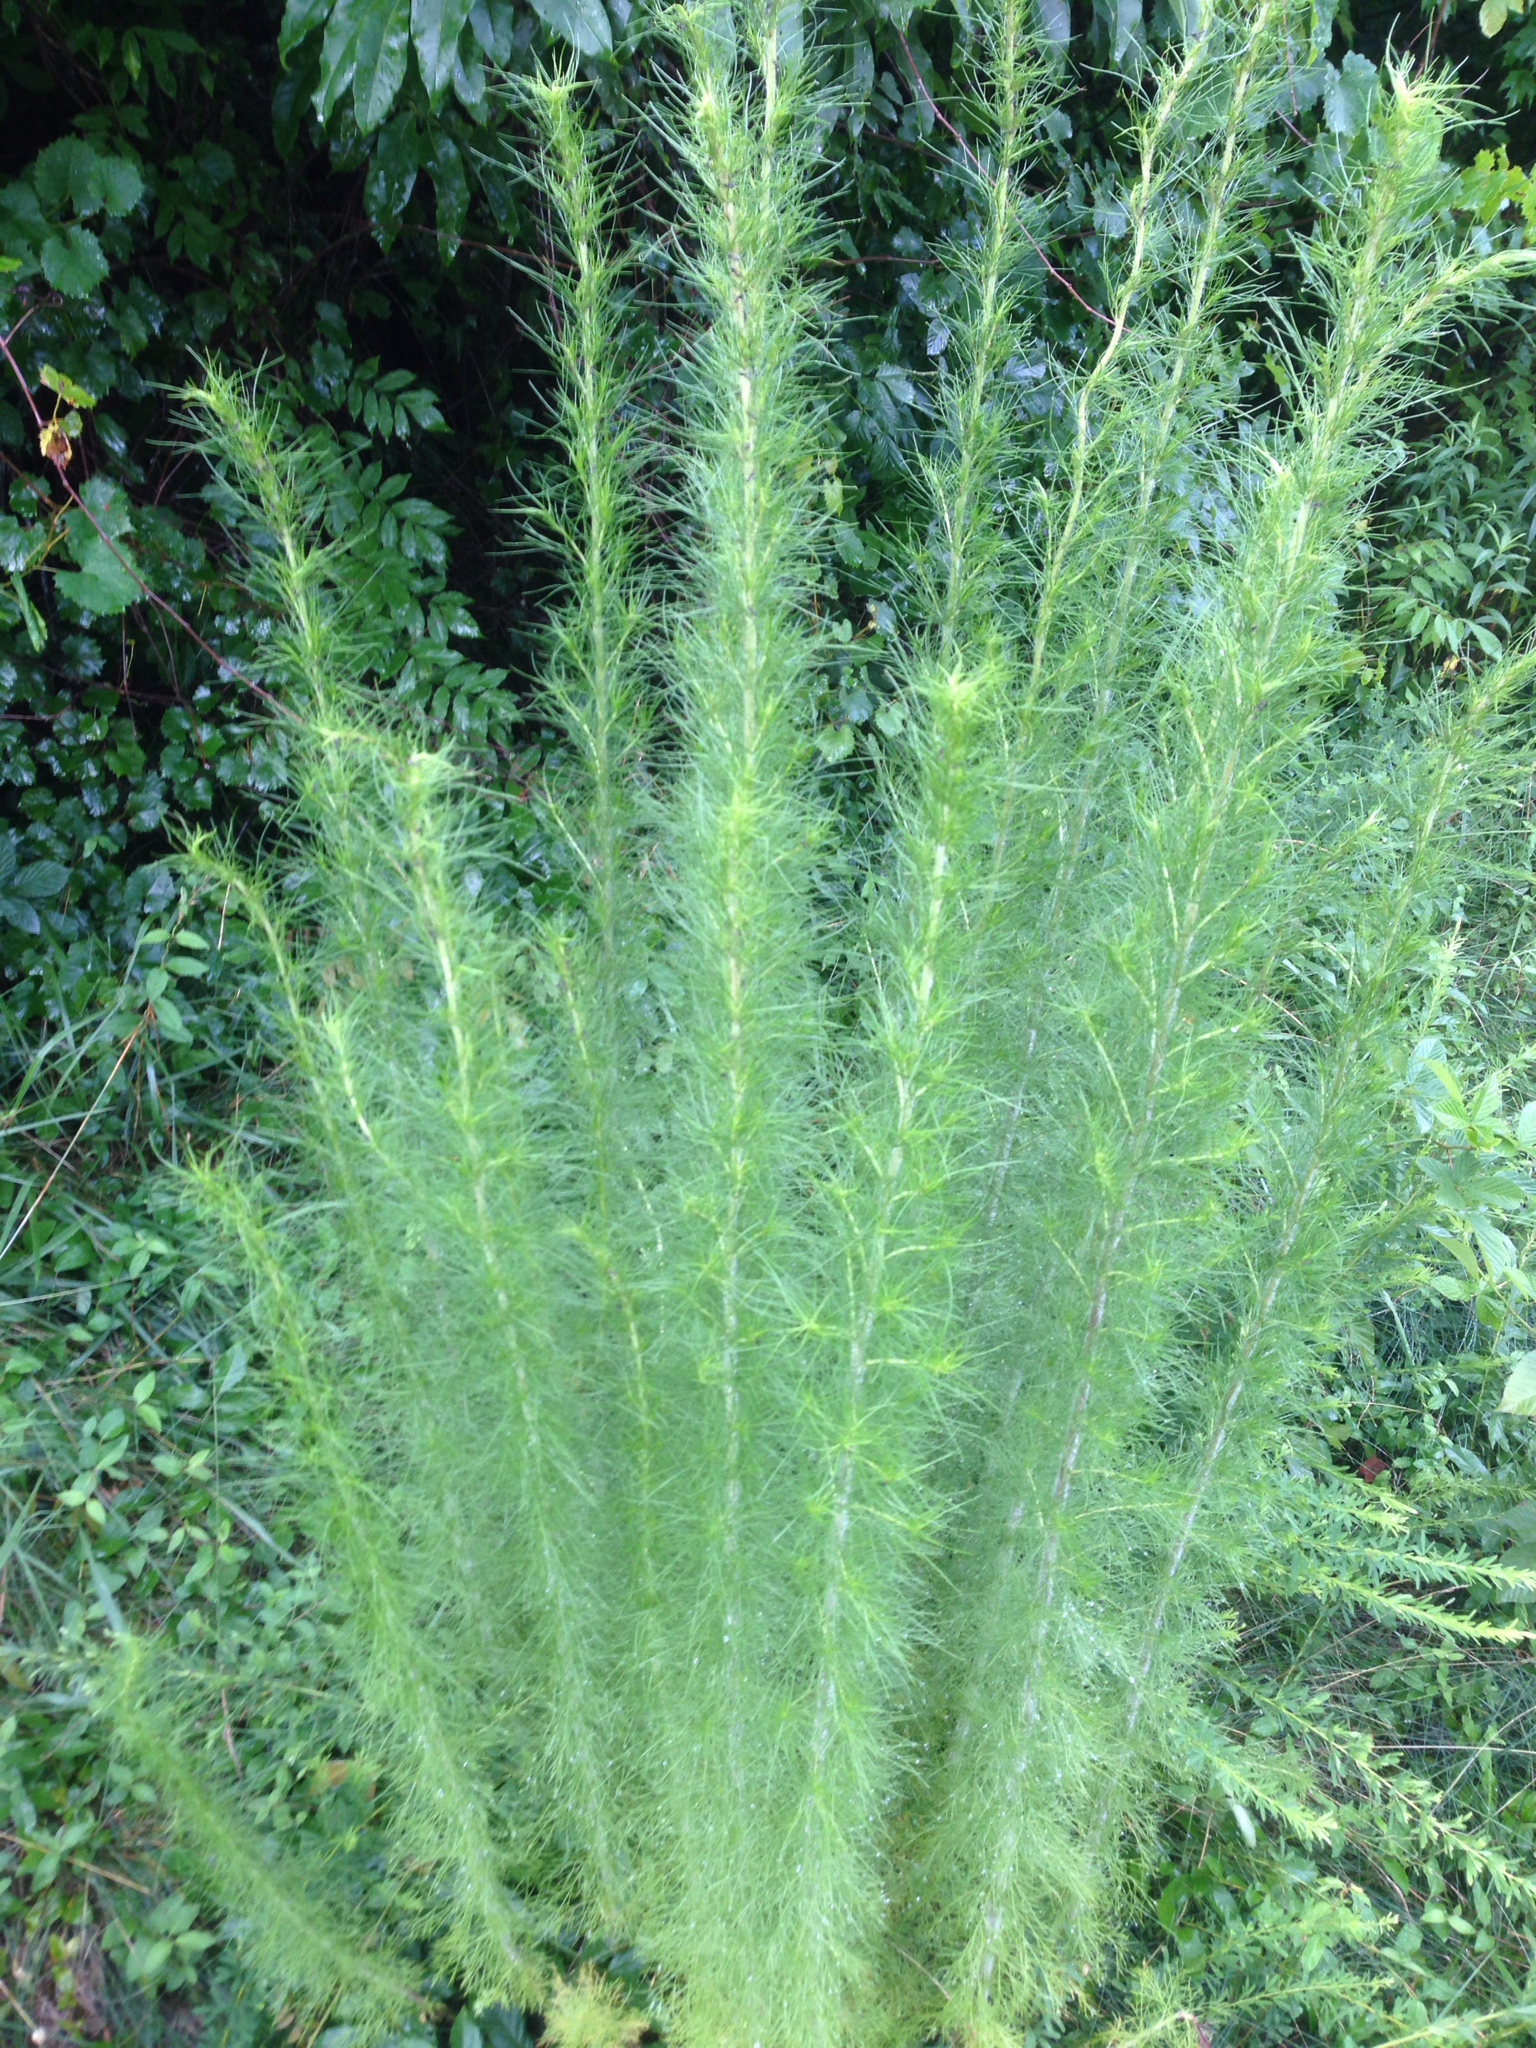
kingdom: Plantae
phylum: Tracheophyta
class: Magnoliopsida
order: Asterales
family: Asteraceae
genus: Eupatorium
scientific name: Eupatorium capillifolium
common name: Dog-fennel
